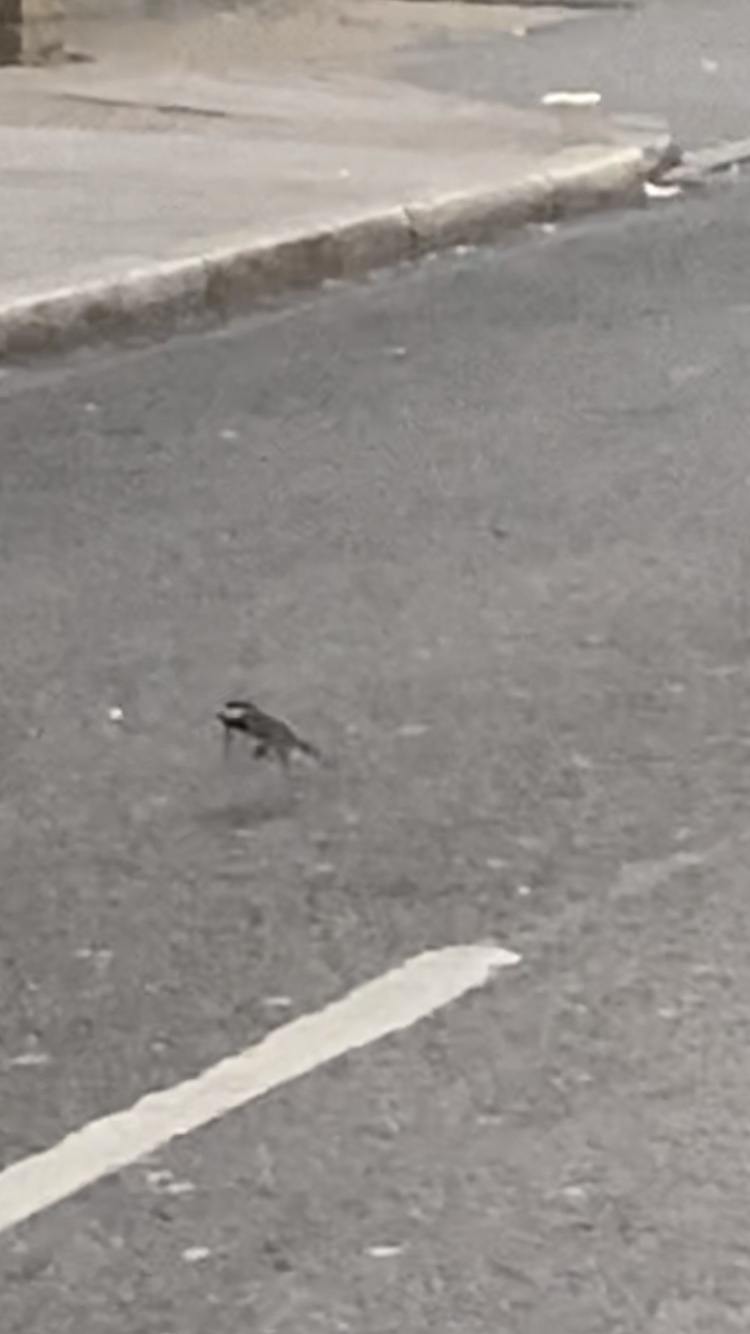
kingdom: Animalia
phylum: Chordata
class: Aves
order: Passeriformes
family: Motacillidae
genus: Motacilla
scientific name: Motacilla alba
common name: White wagtail
